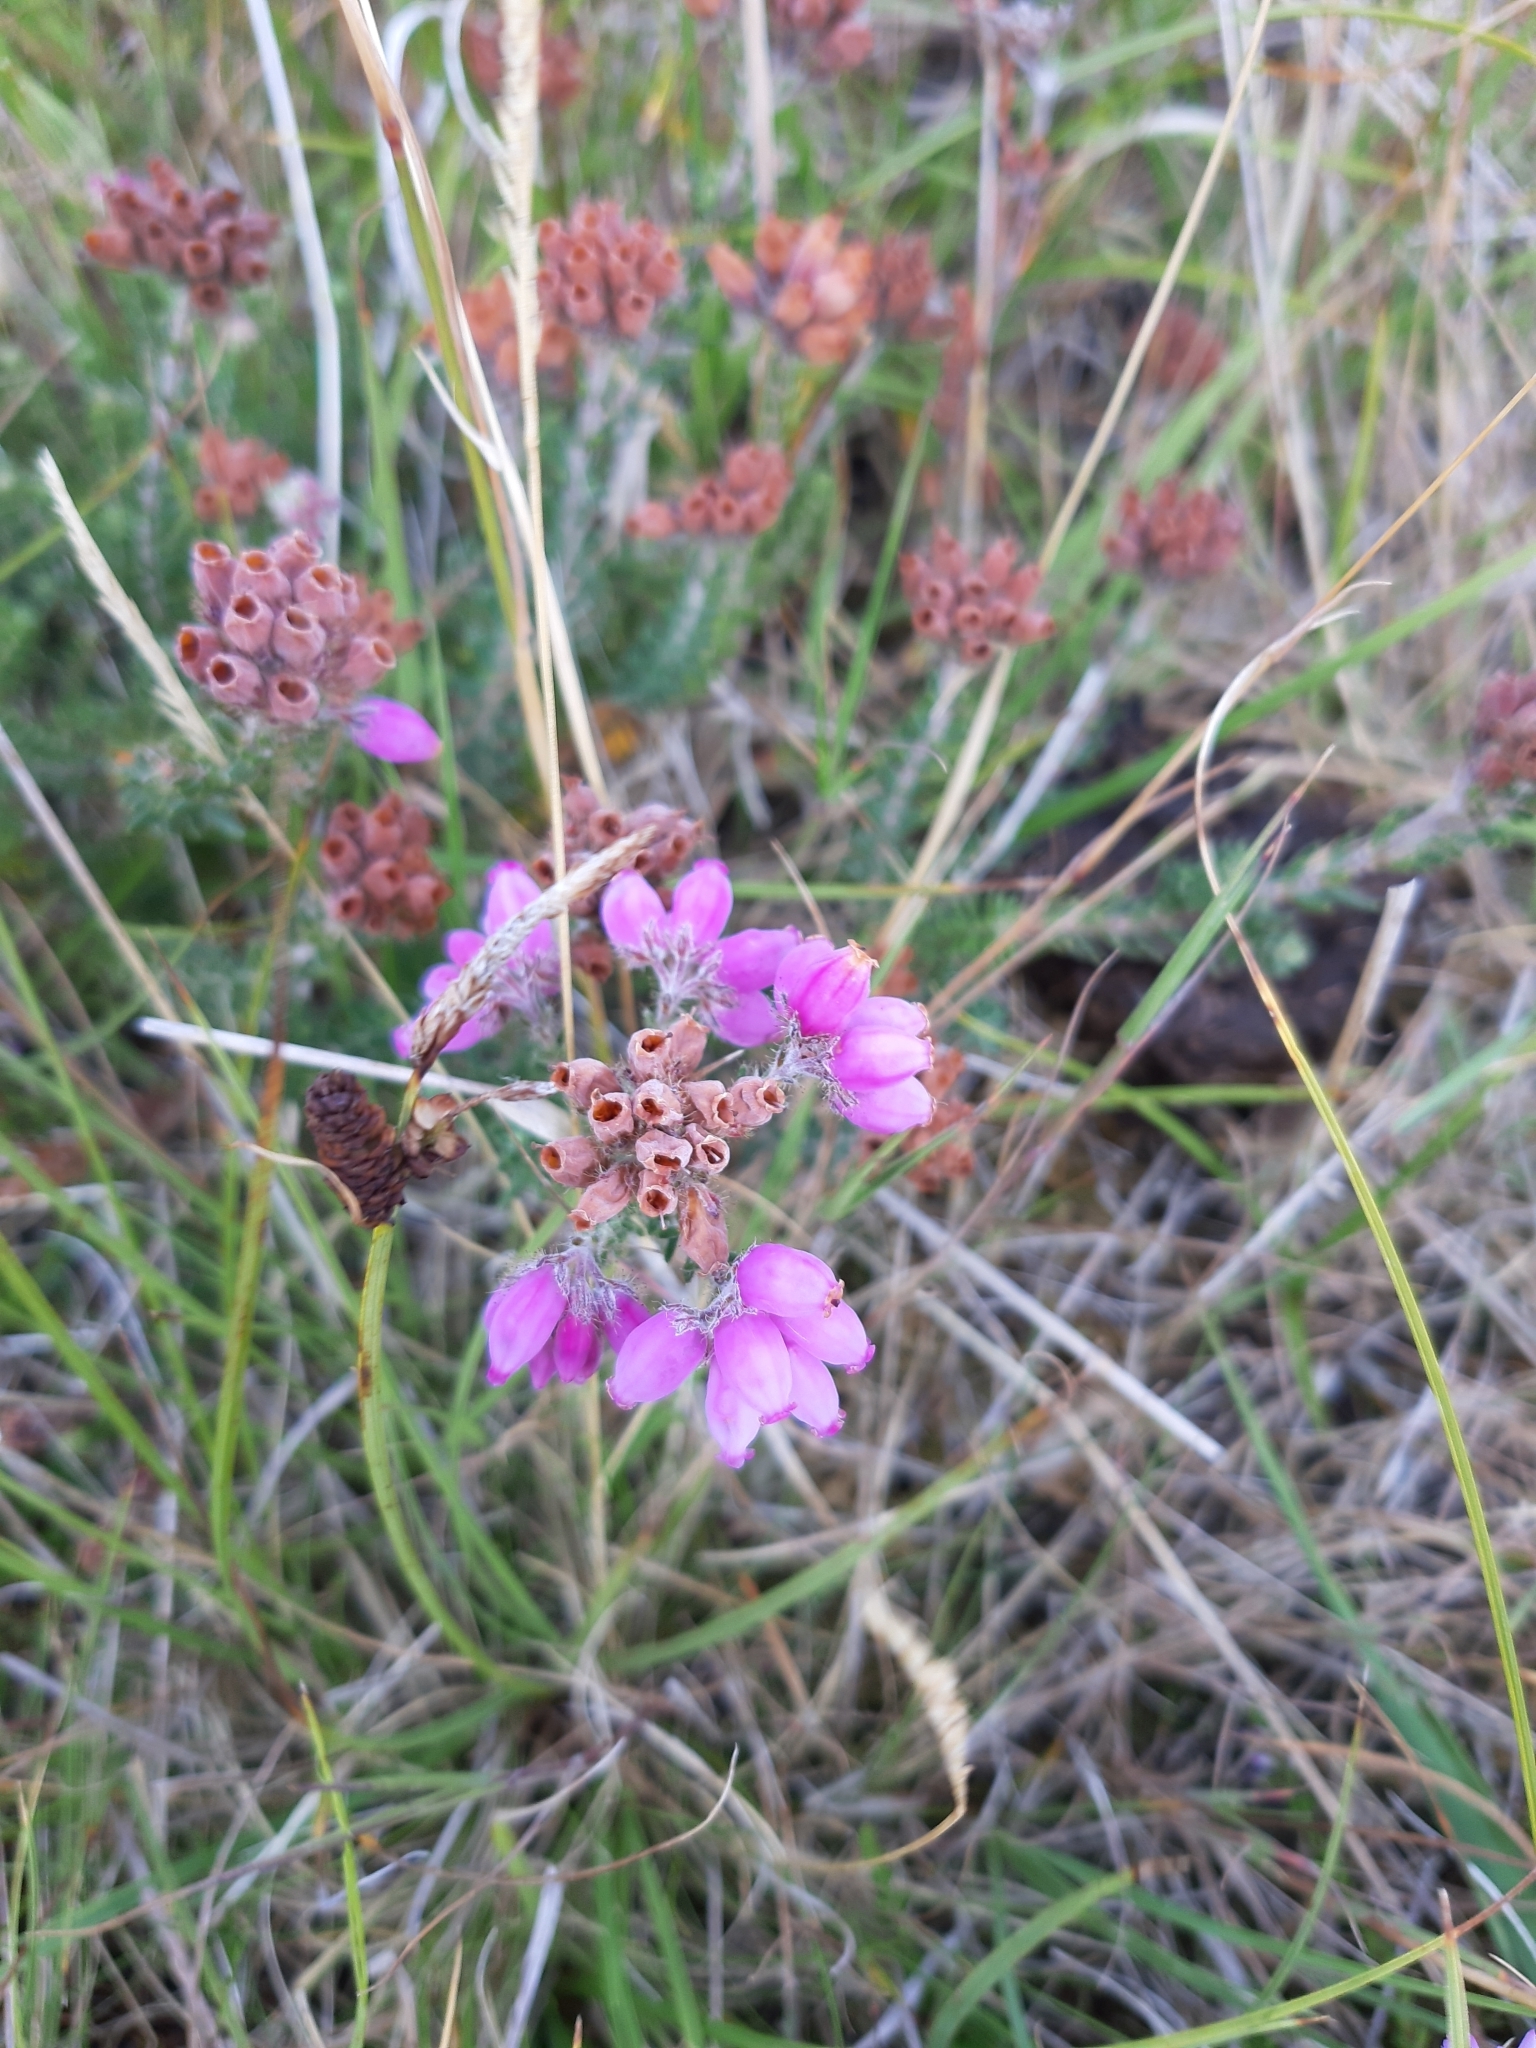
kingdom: Plantae
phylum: Tracheophyta
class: Magnoliopsida
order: Ericales
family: Ericaceae
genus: Erica
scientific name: Erica tetralix
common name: Cross-leaved heath
